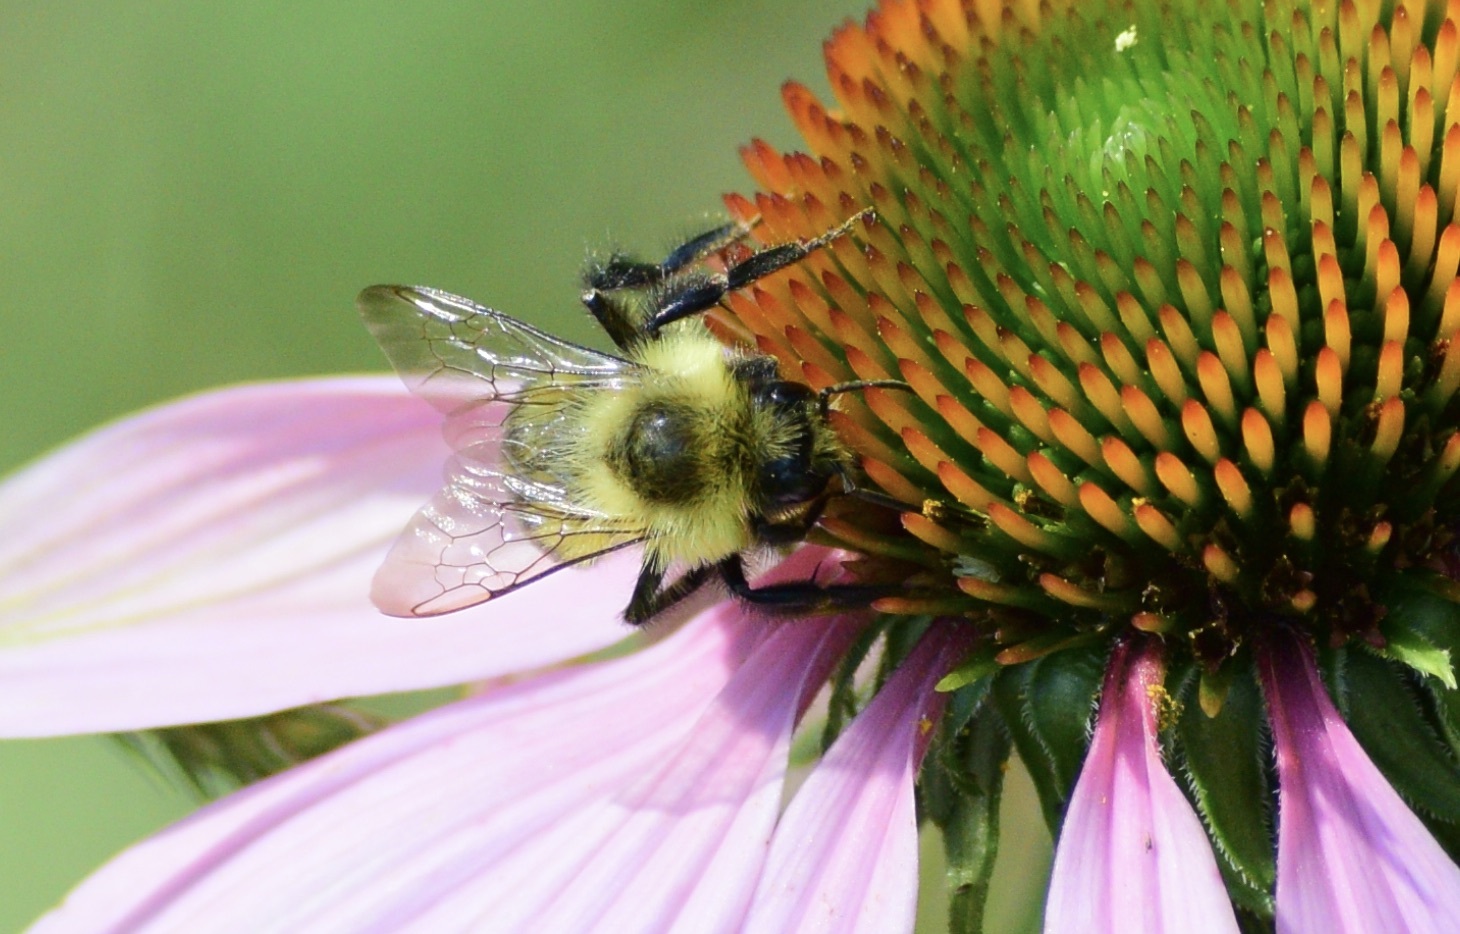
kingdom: Animalia
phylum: Arthropoda
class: Insecta
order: Hymenoptera
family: Apidae
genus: Bombus
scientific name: Bombus impatiens
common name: Common eastern bumble bee
